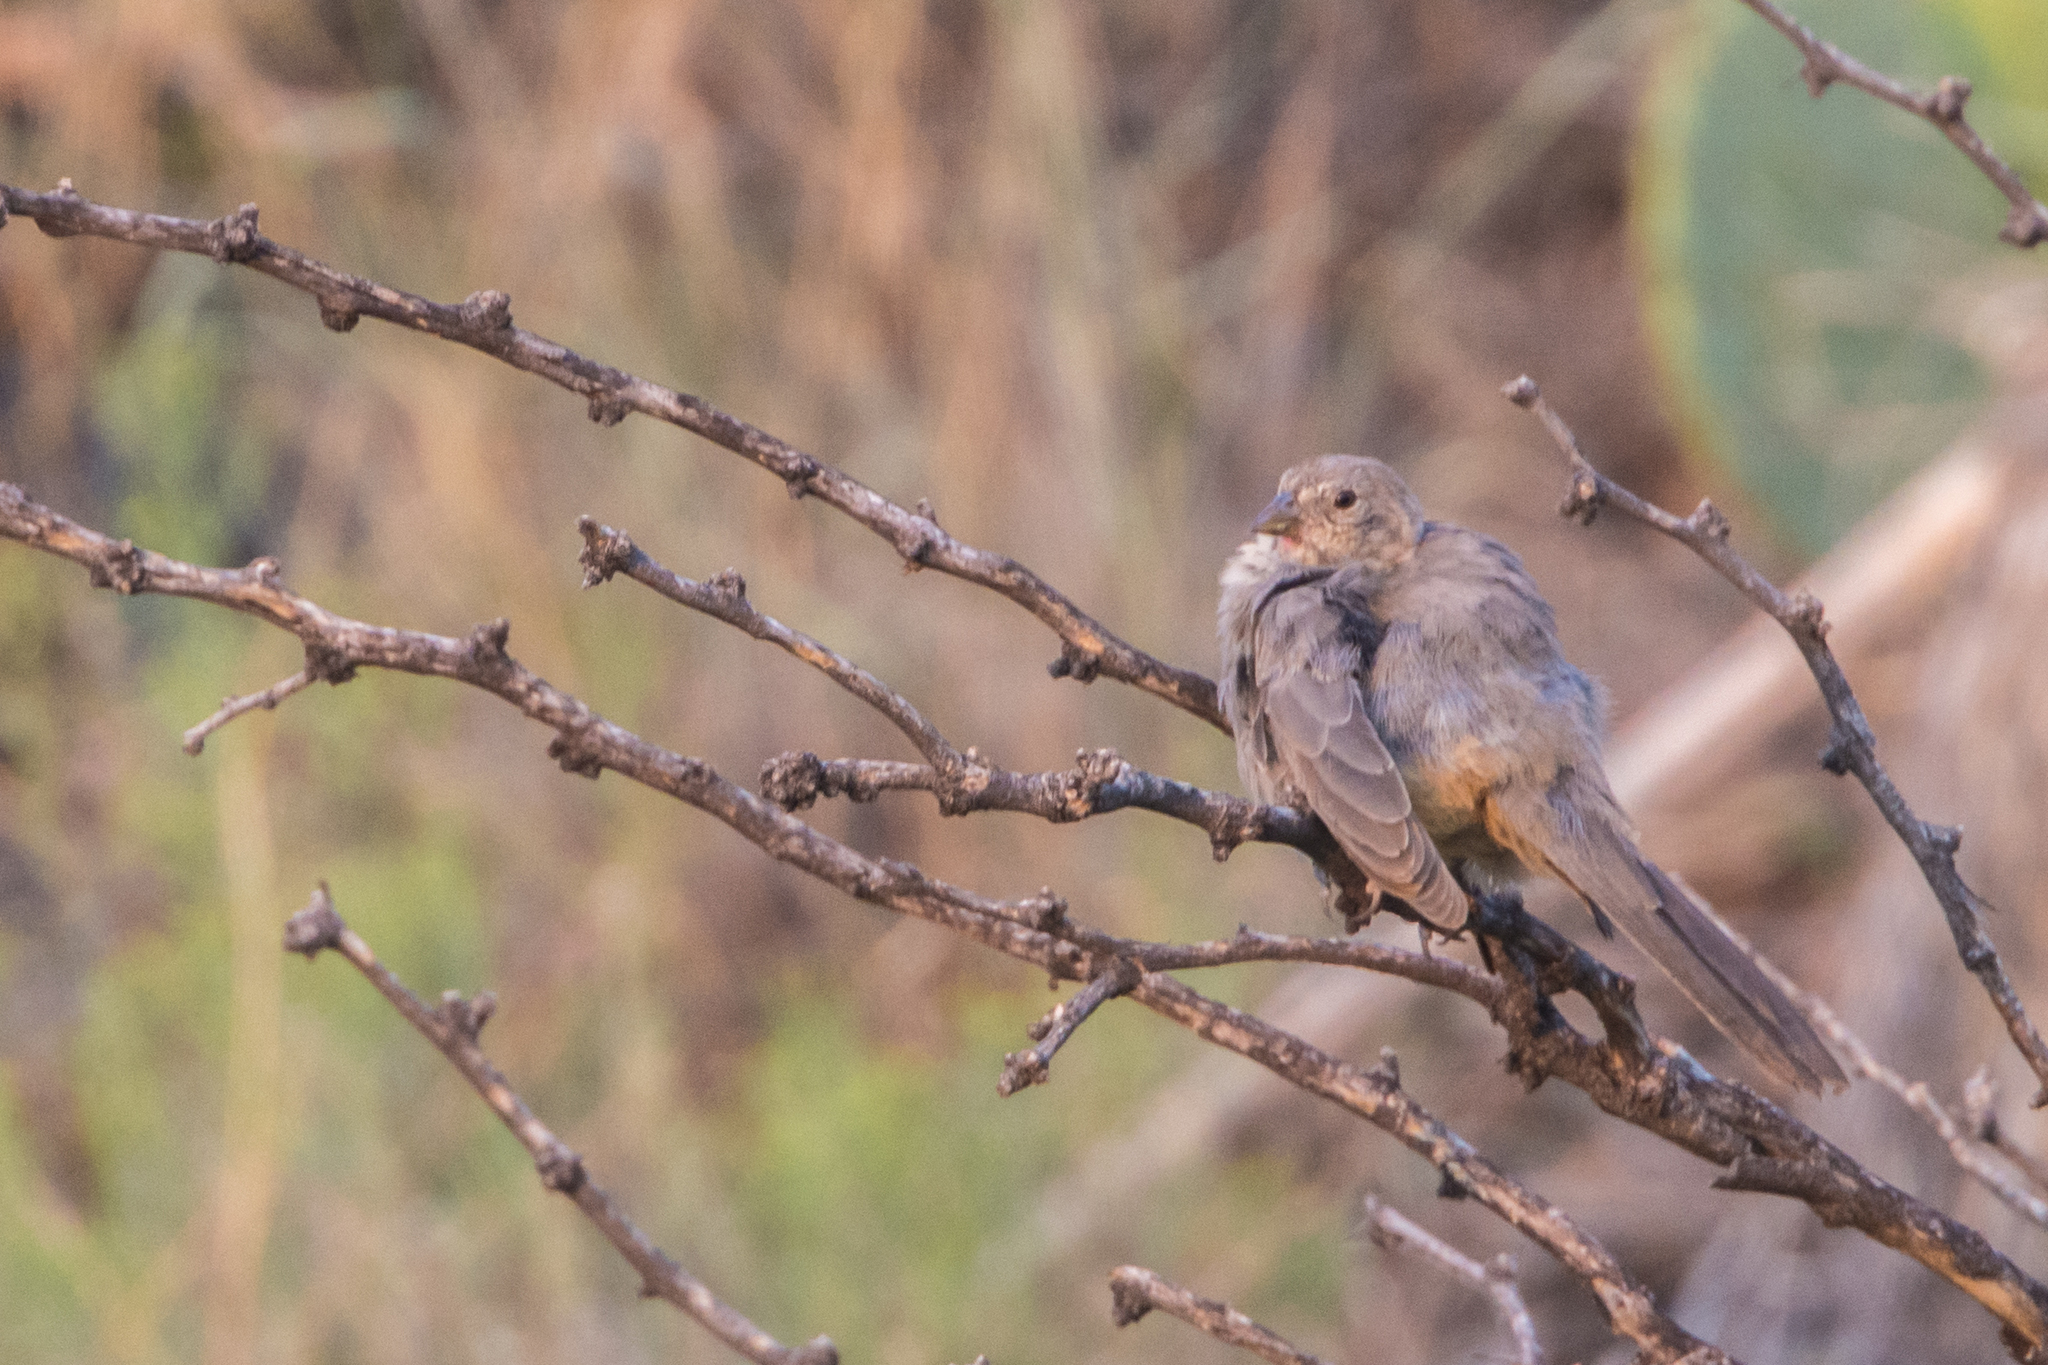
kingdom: Animalia
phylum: Chordata
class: Aves
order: Passeriformes
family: Passerellidae
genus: Melozone
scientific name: Melozone fusca
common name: Canyon towhee
